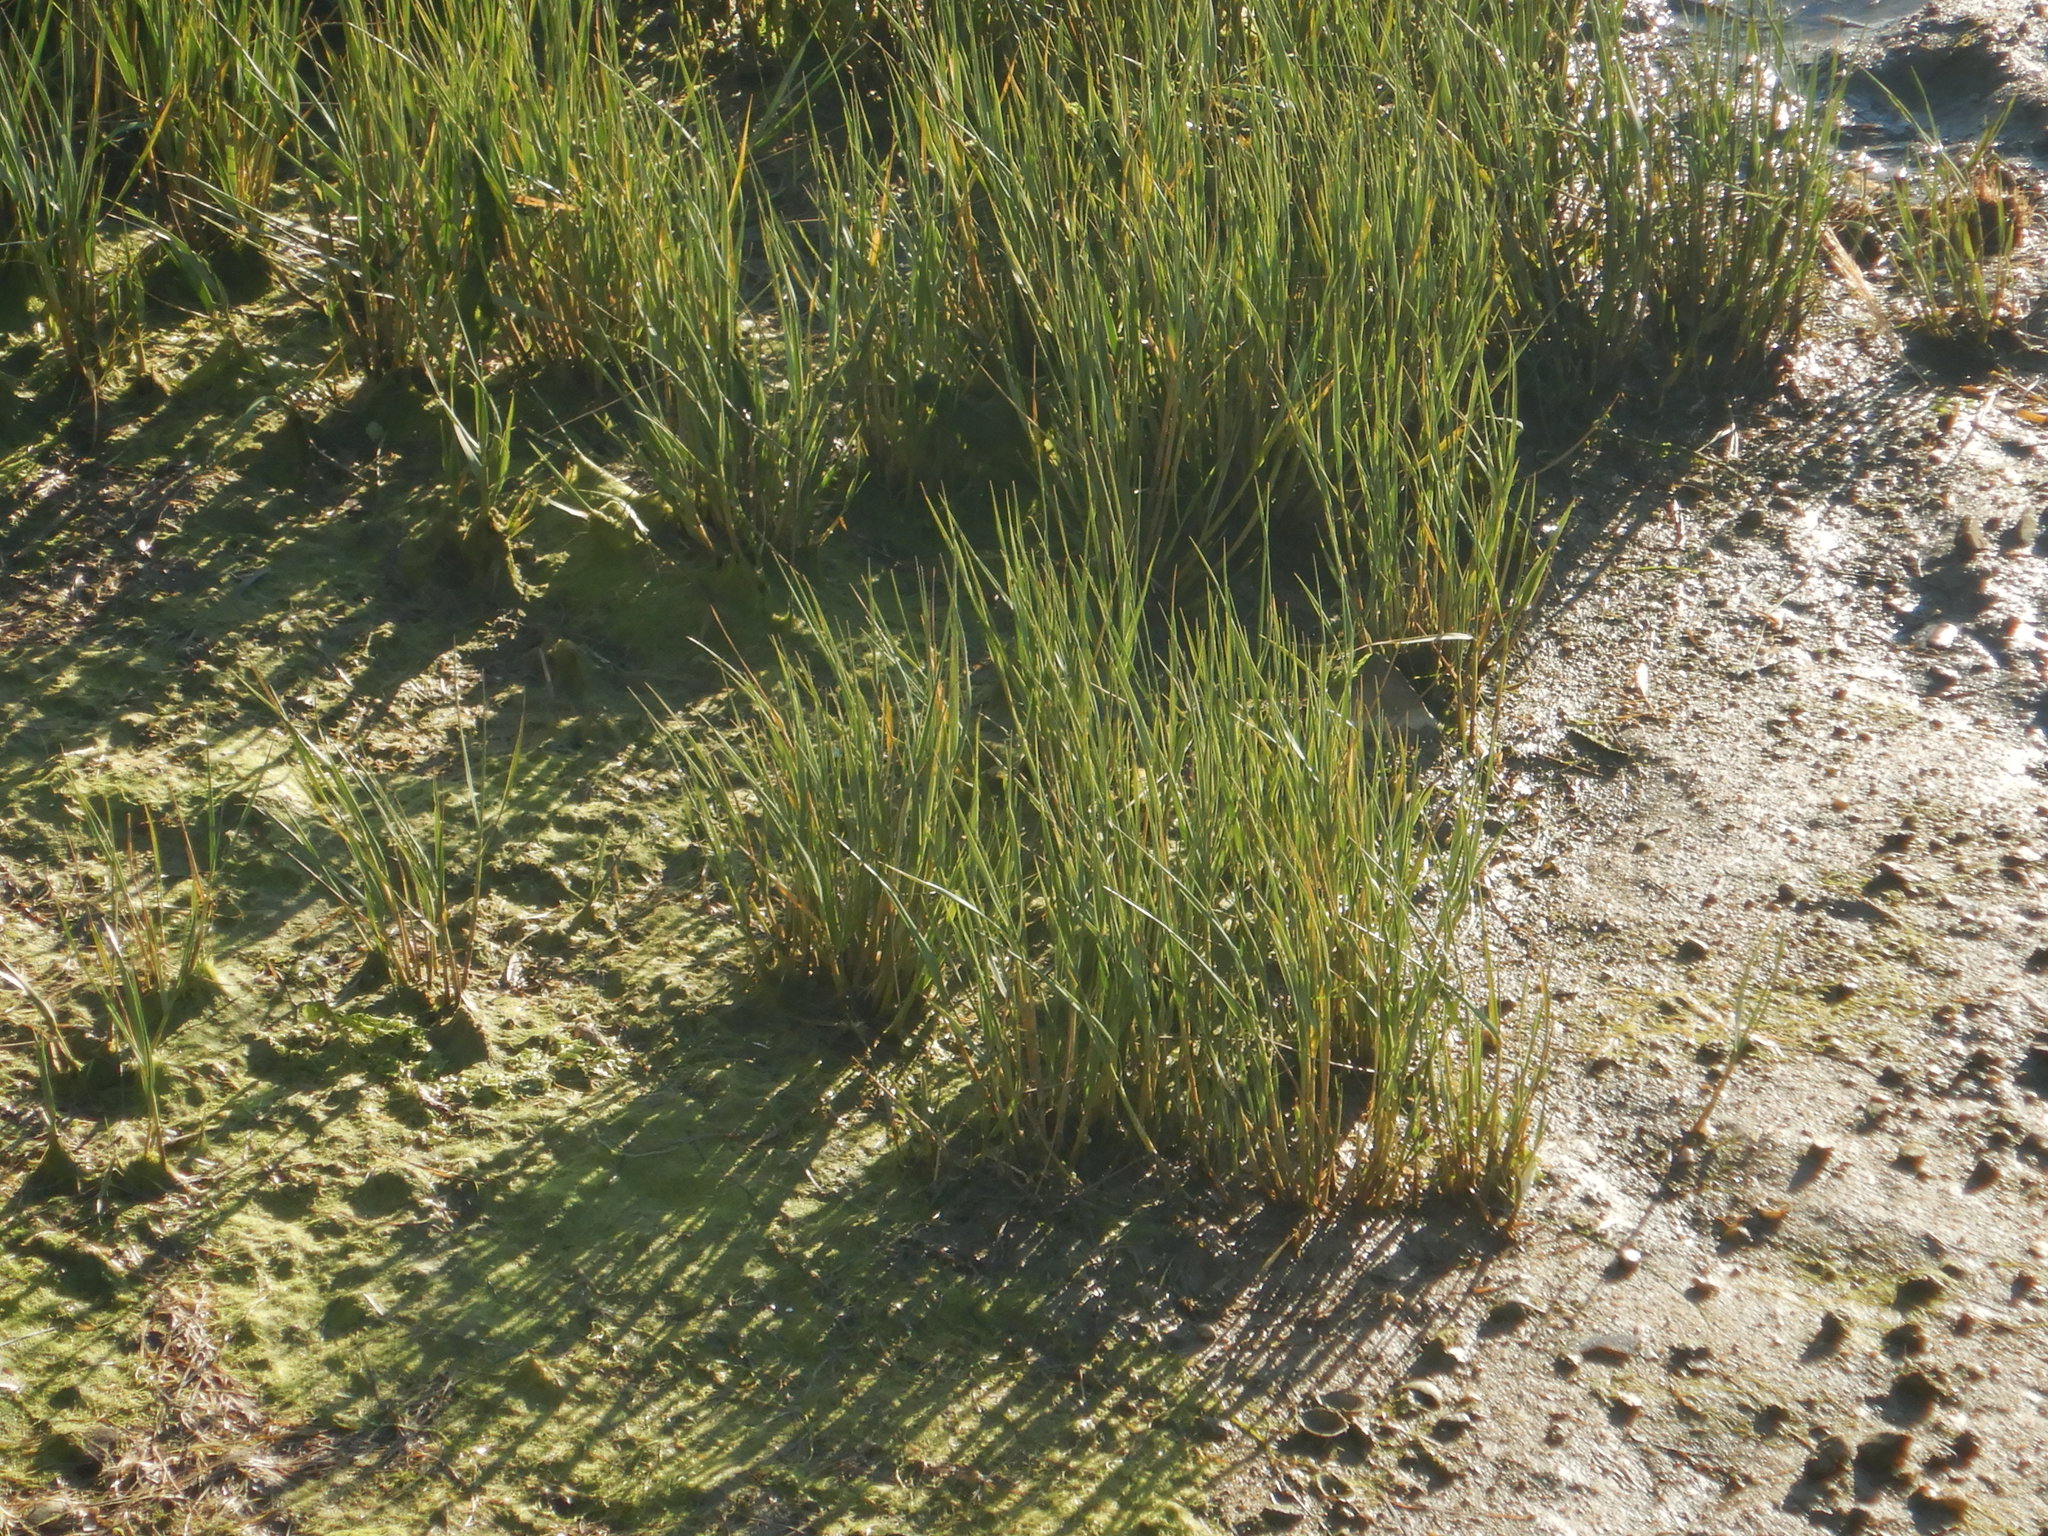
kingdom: Plantae
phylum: Tracheophyta
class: Liliopsida
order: Poales
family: Poaceae
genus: Sporobolus
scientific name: Sporobolus maritimus
